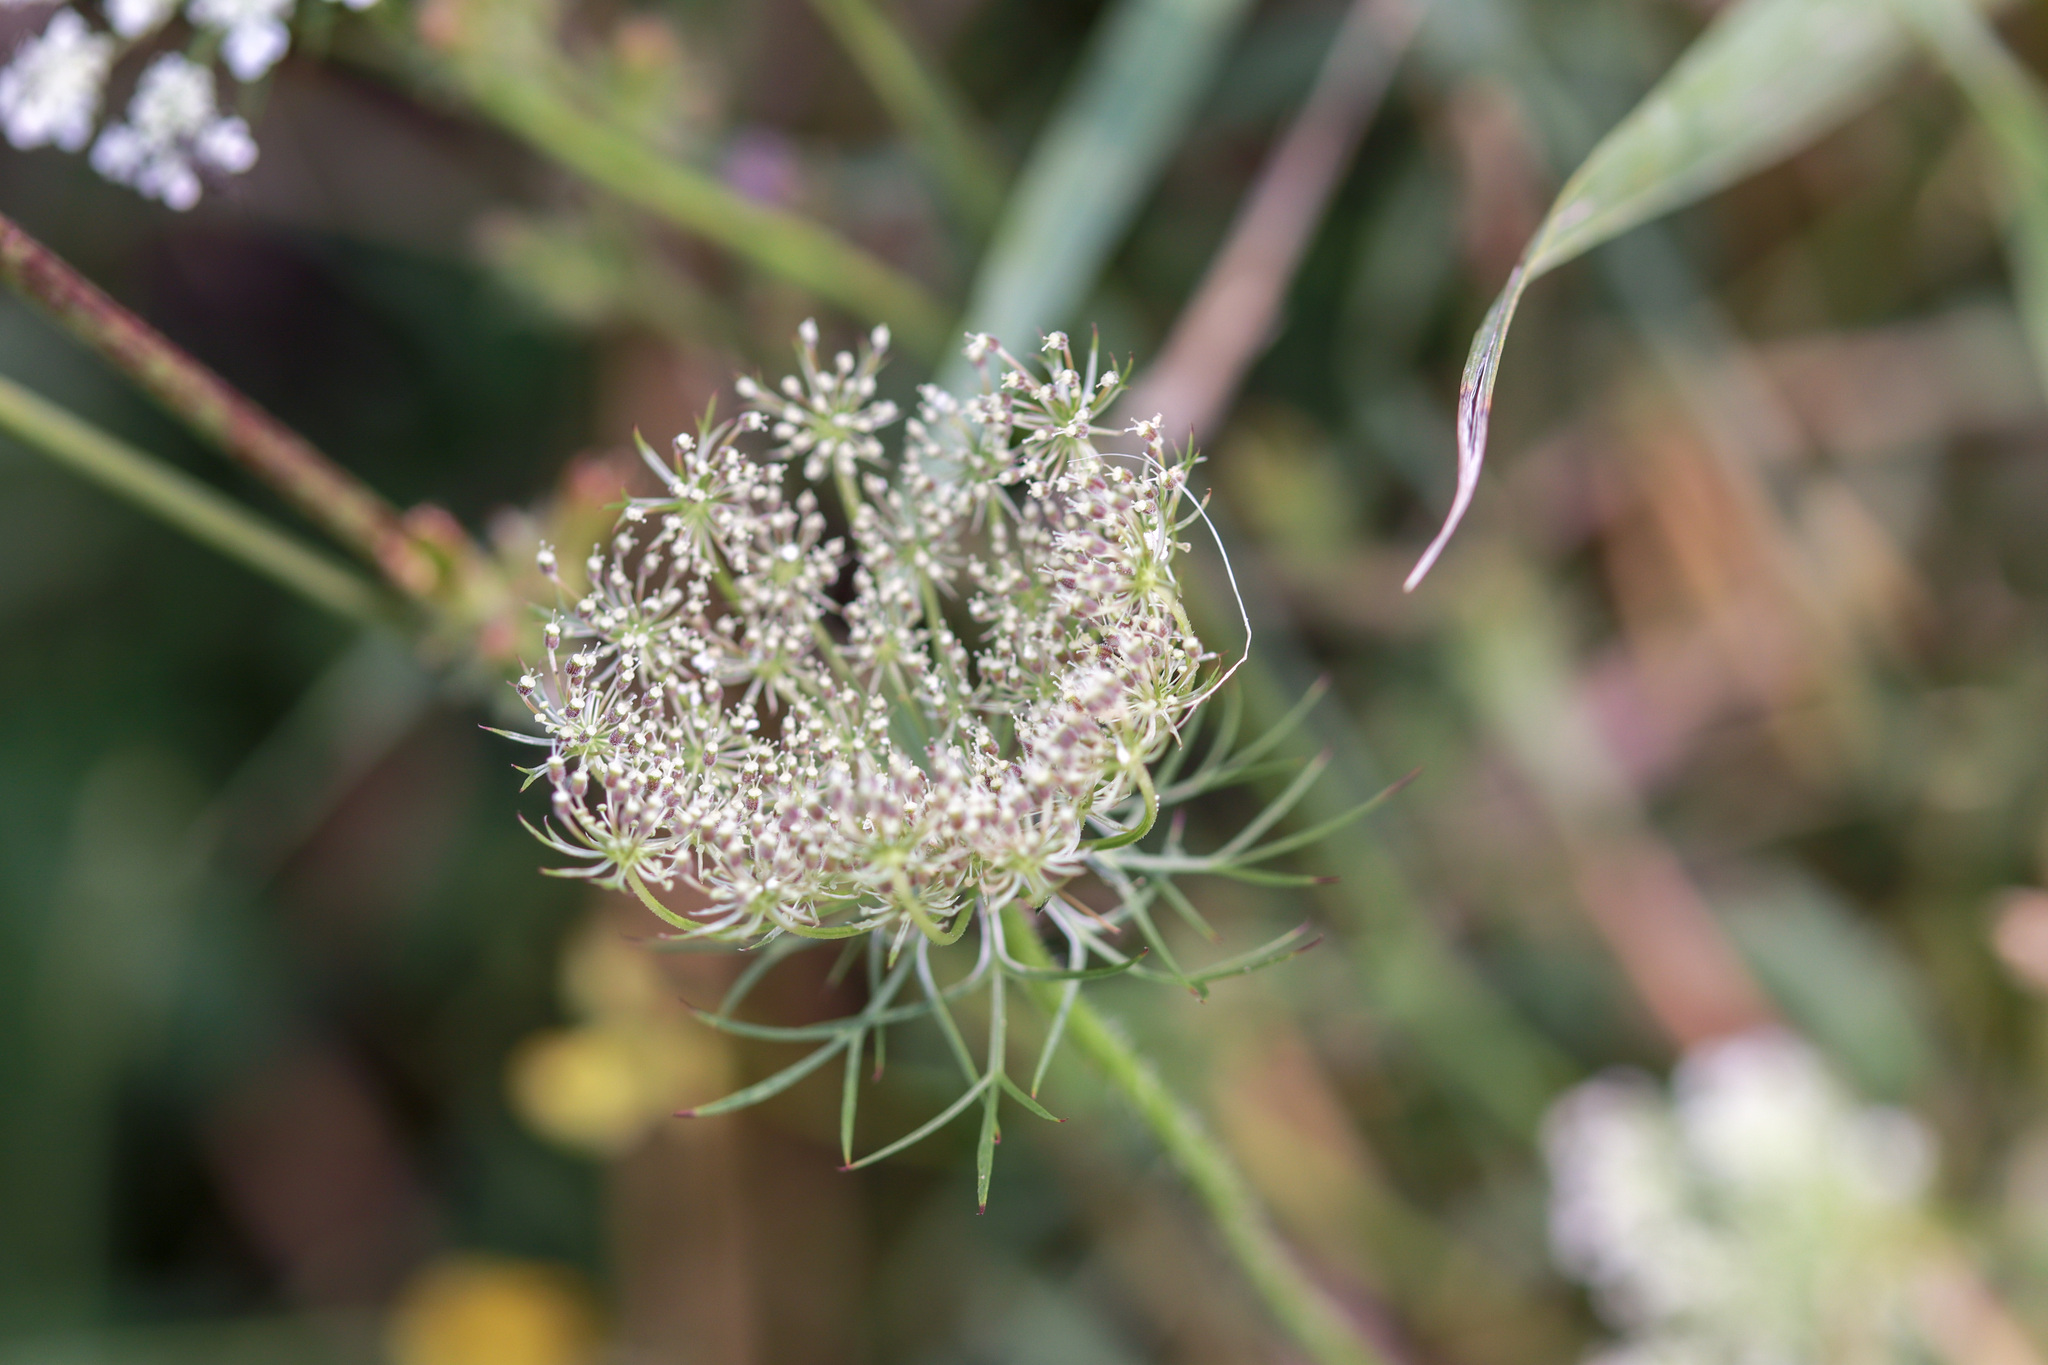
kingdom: Plantae
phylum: Tracheophyta
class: Magnoliopsida
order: Apiales
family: Apiaceae
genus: Daucus
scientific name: Daucus carota
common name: Wild carrot
